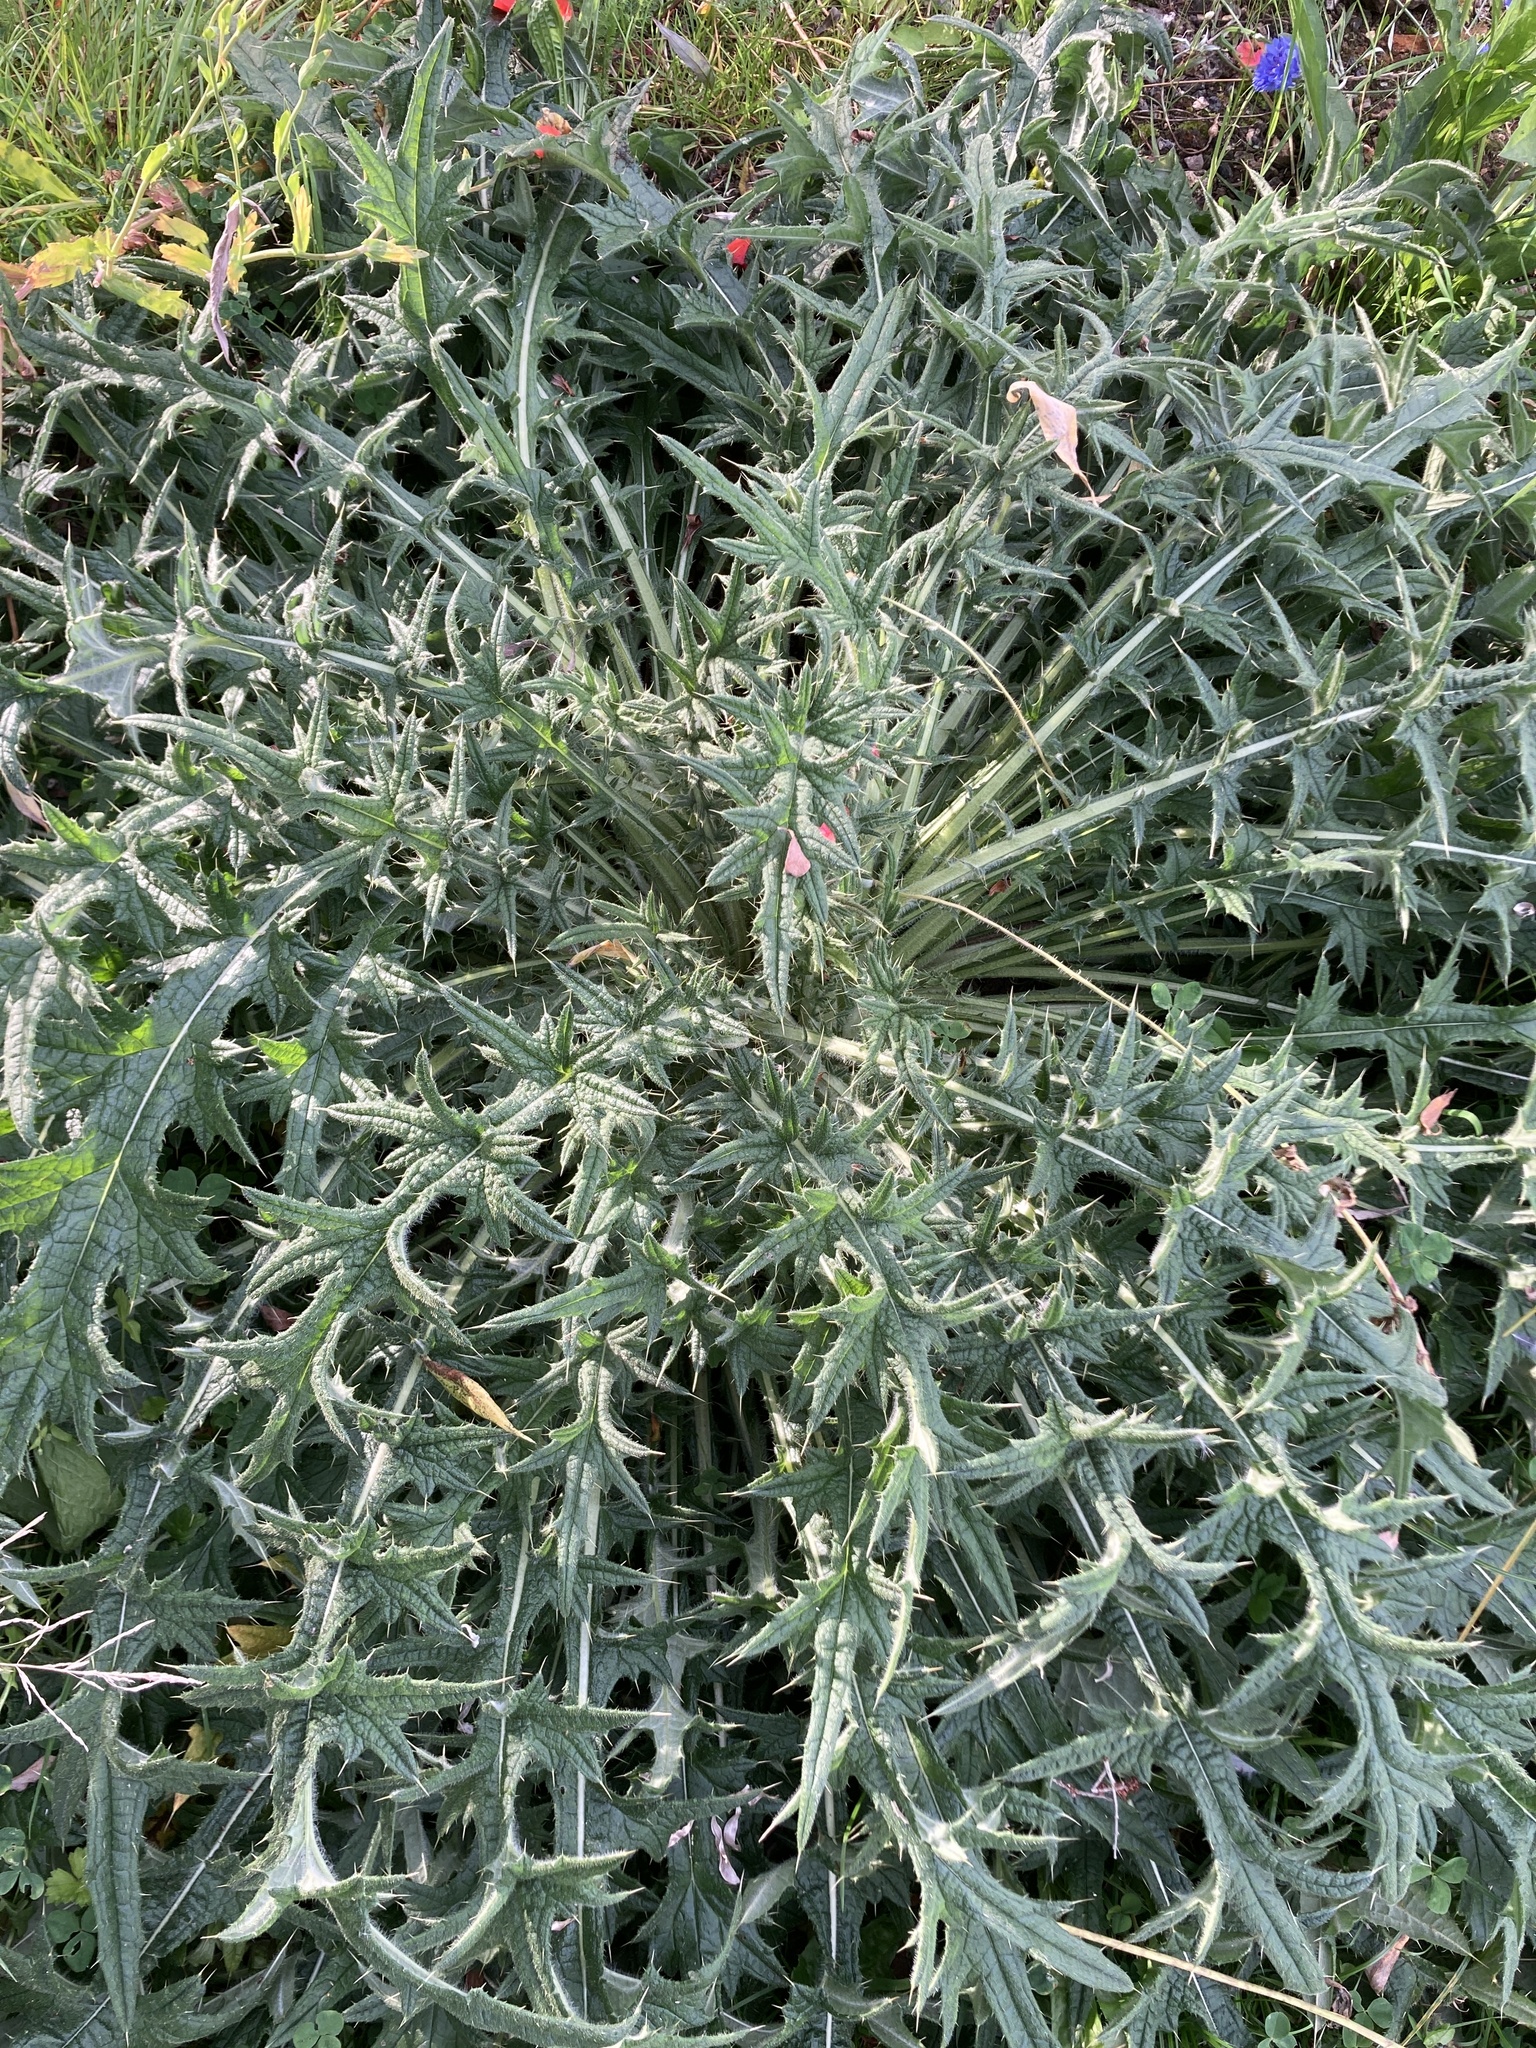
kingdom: Plantae
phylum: Tracheophyta
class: Magnoliopsida
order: Asterales
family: Asteraceae
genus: Cirsium
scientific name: Cirsium vulgare
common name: Bull thistle
